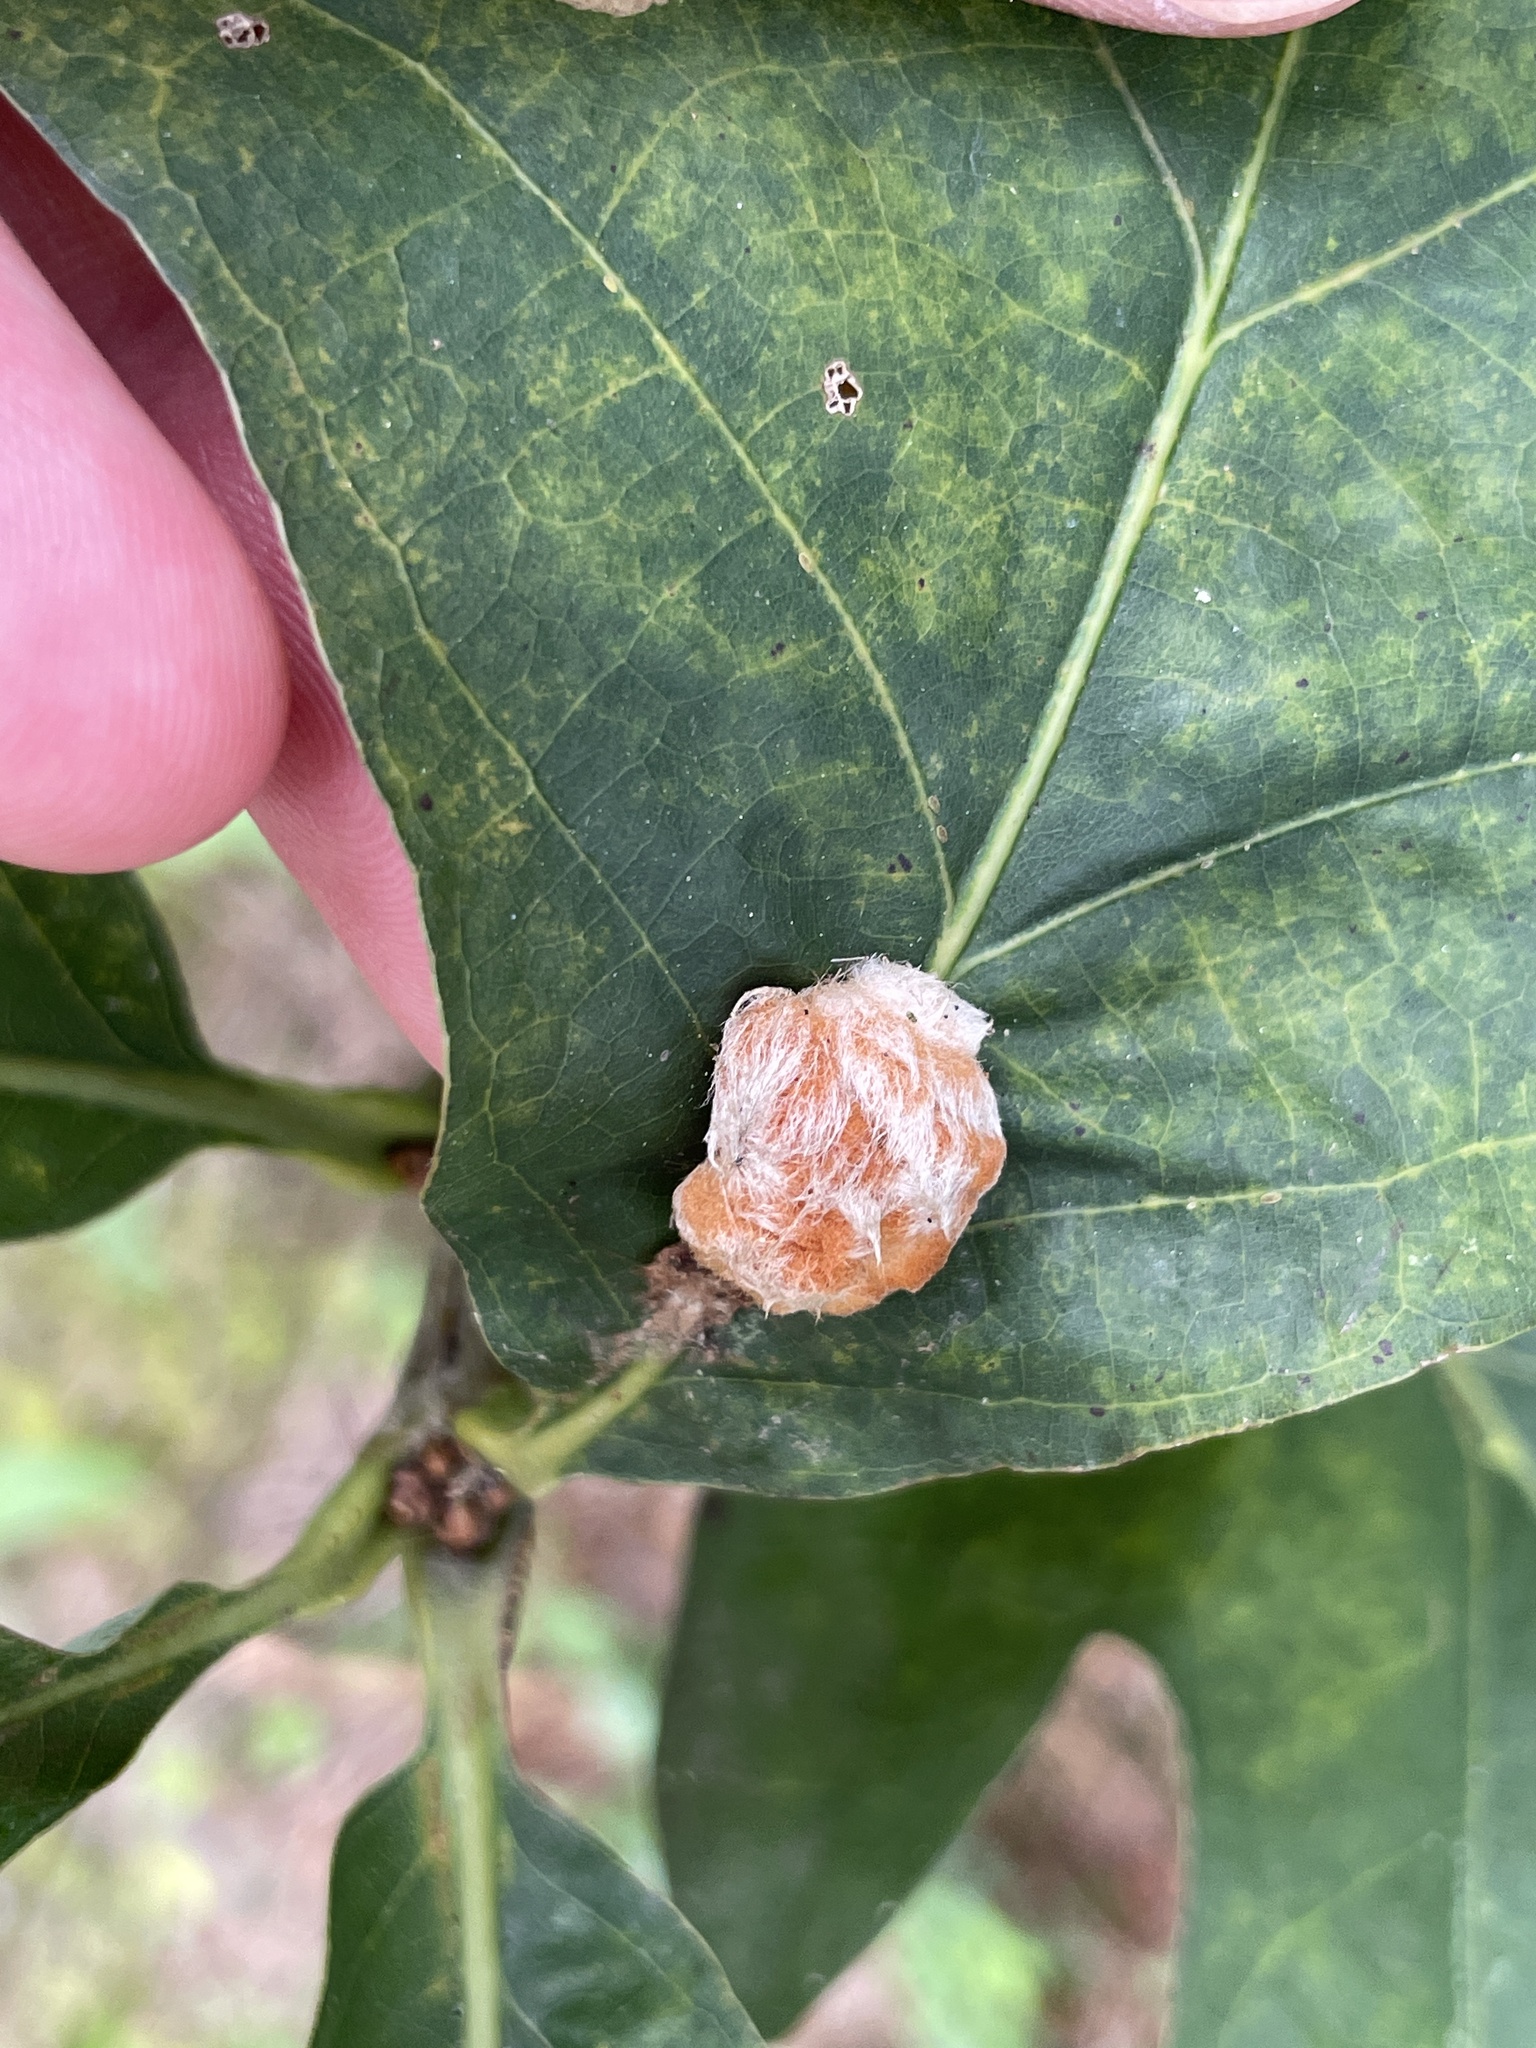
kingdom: Animalia
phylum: Arthropoda
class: Insecta
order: Hymenoptera
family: Cynipidae
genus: Andricus
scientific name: Andricus quercusflocci
